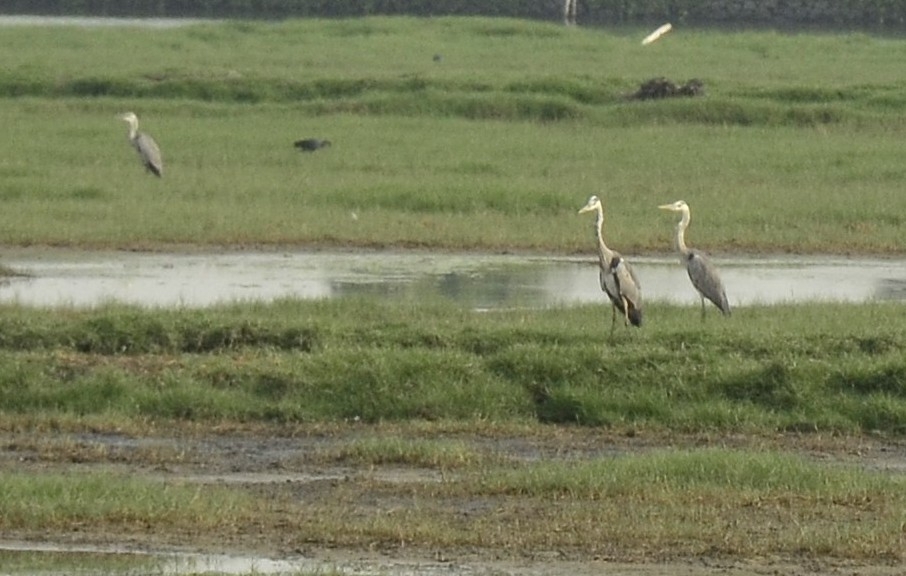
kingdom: Animalia
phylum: Chordata
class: Aves
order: Pelecaniformes
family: Ardeidae
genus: Ardea
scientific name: Ardea cinerea
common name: Grey heron
